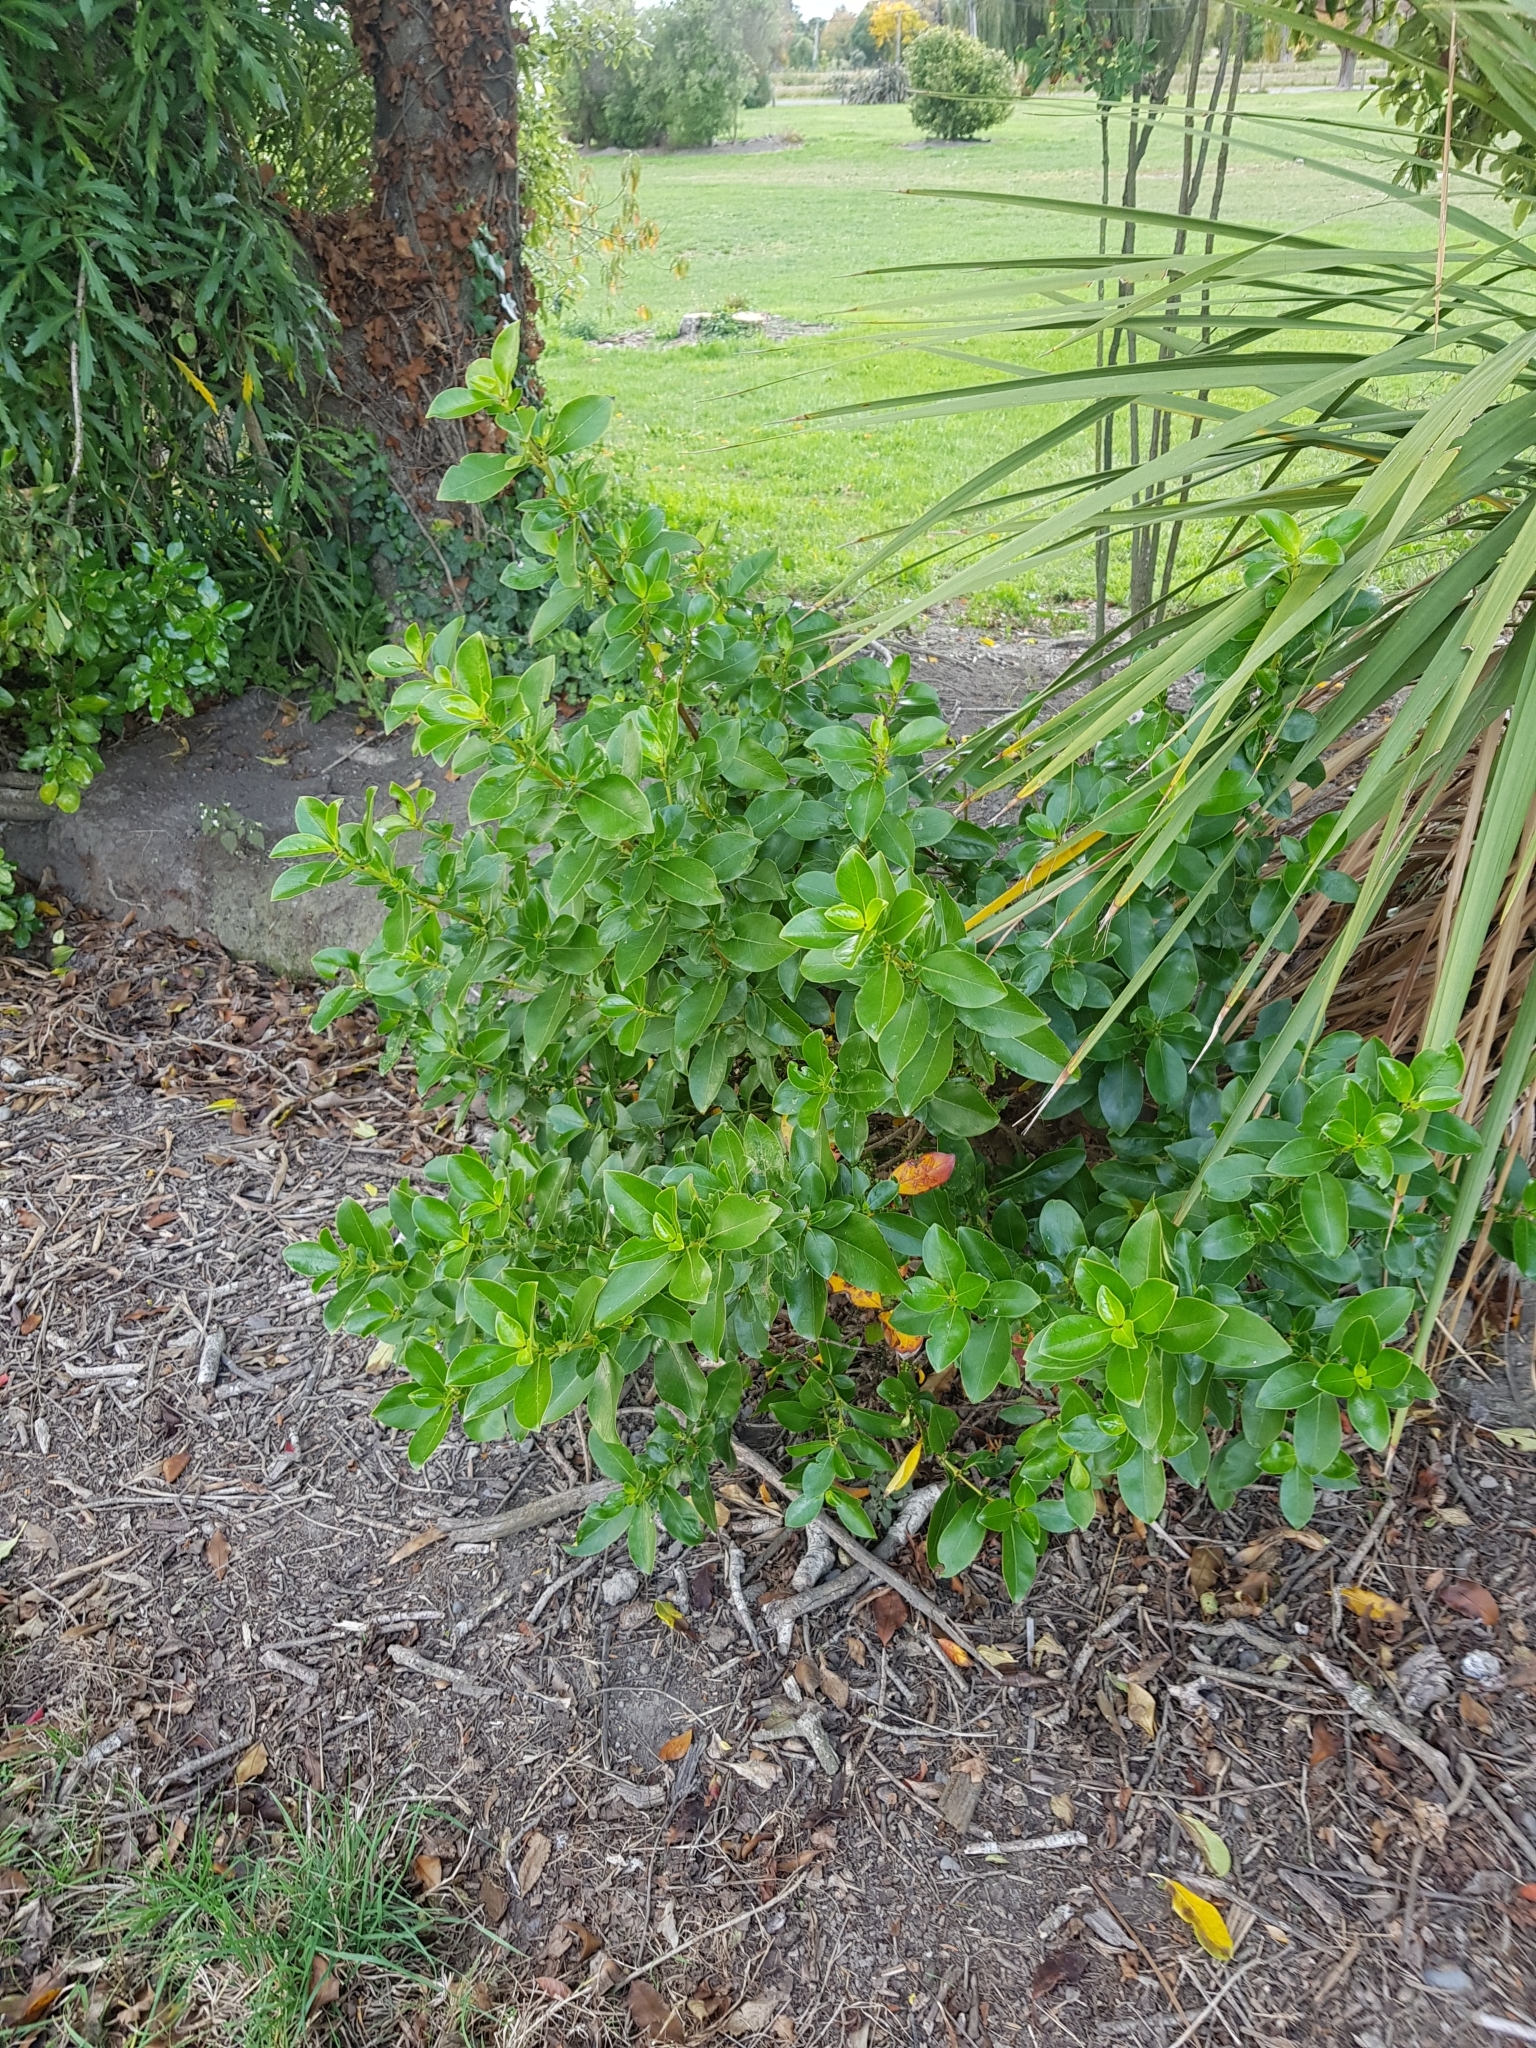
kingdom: Plantae
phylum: Tracheophyta
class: Magnoliopsida
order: Gentianales
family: Rubiaceae
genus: Coprosma
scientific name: Coprosma robusta
